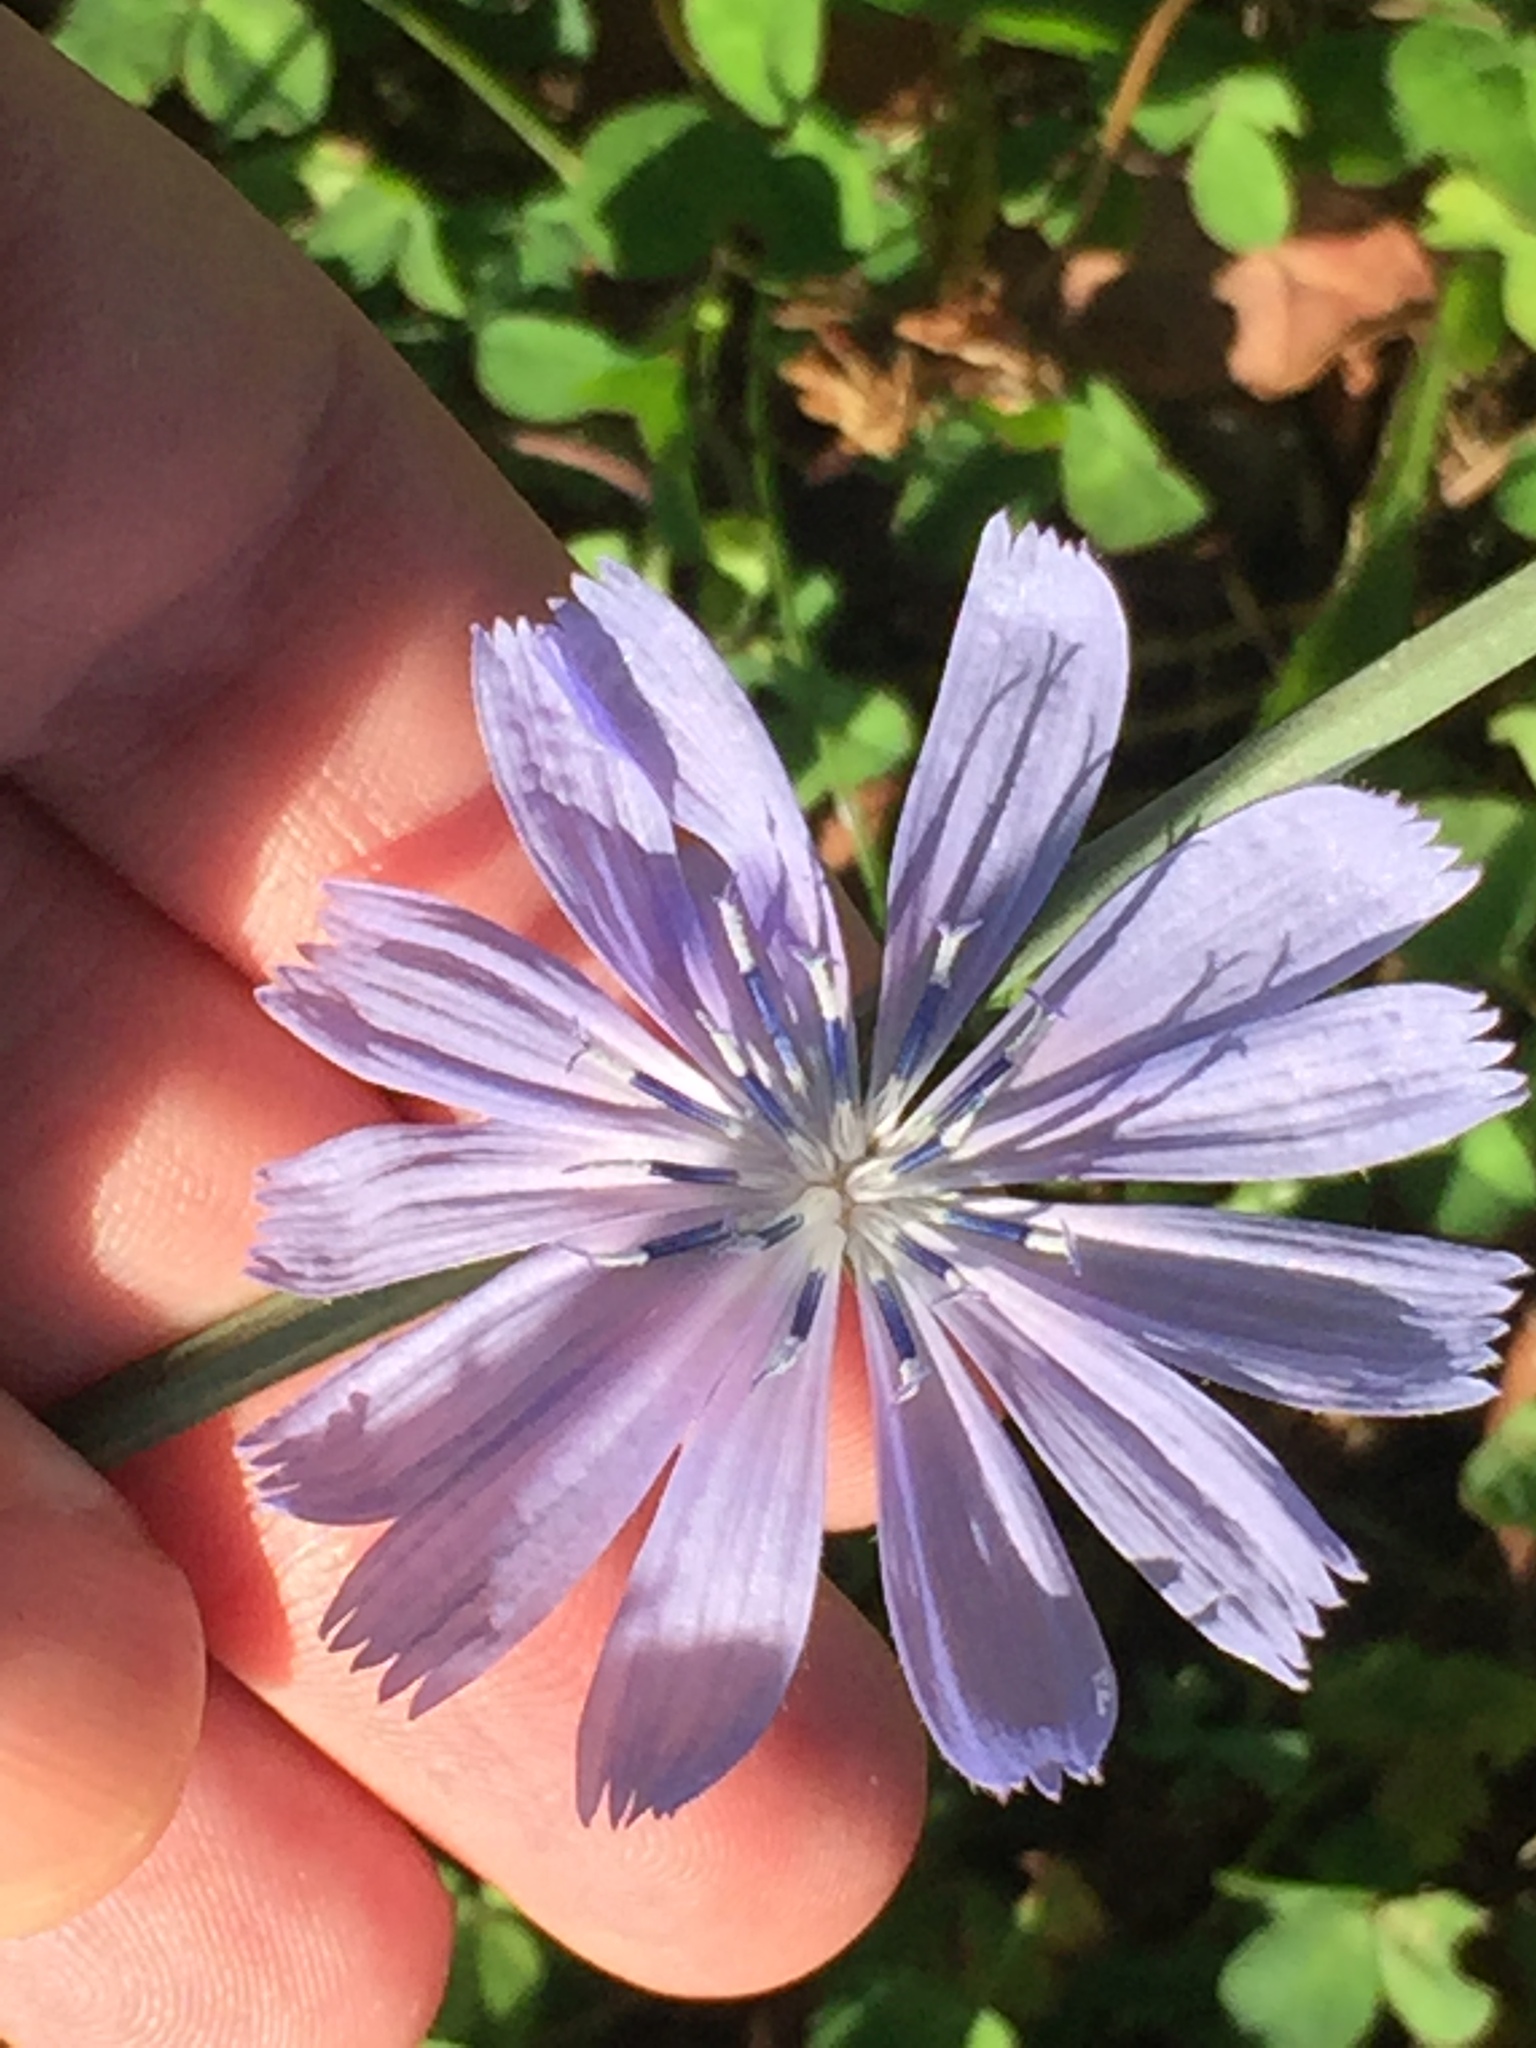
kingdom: Plantae
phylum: Tracheophyta
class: Magnoliopsida
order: Asterales
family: Asteraceae
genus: Cichorium
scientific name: Cichorium intybus
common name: Chicory
